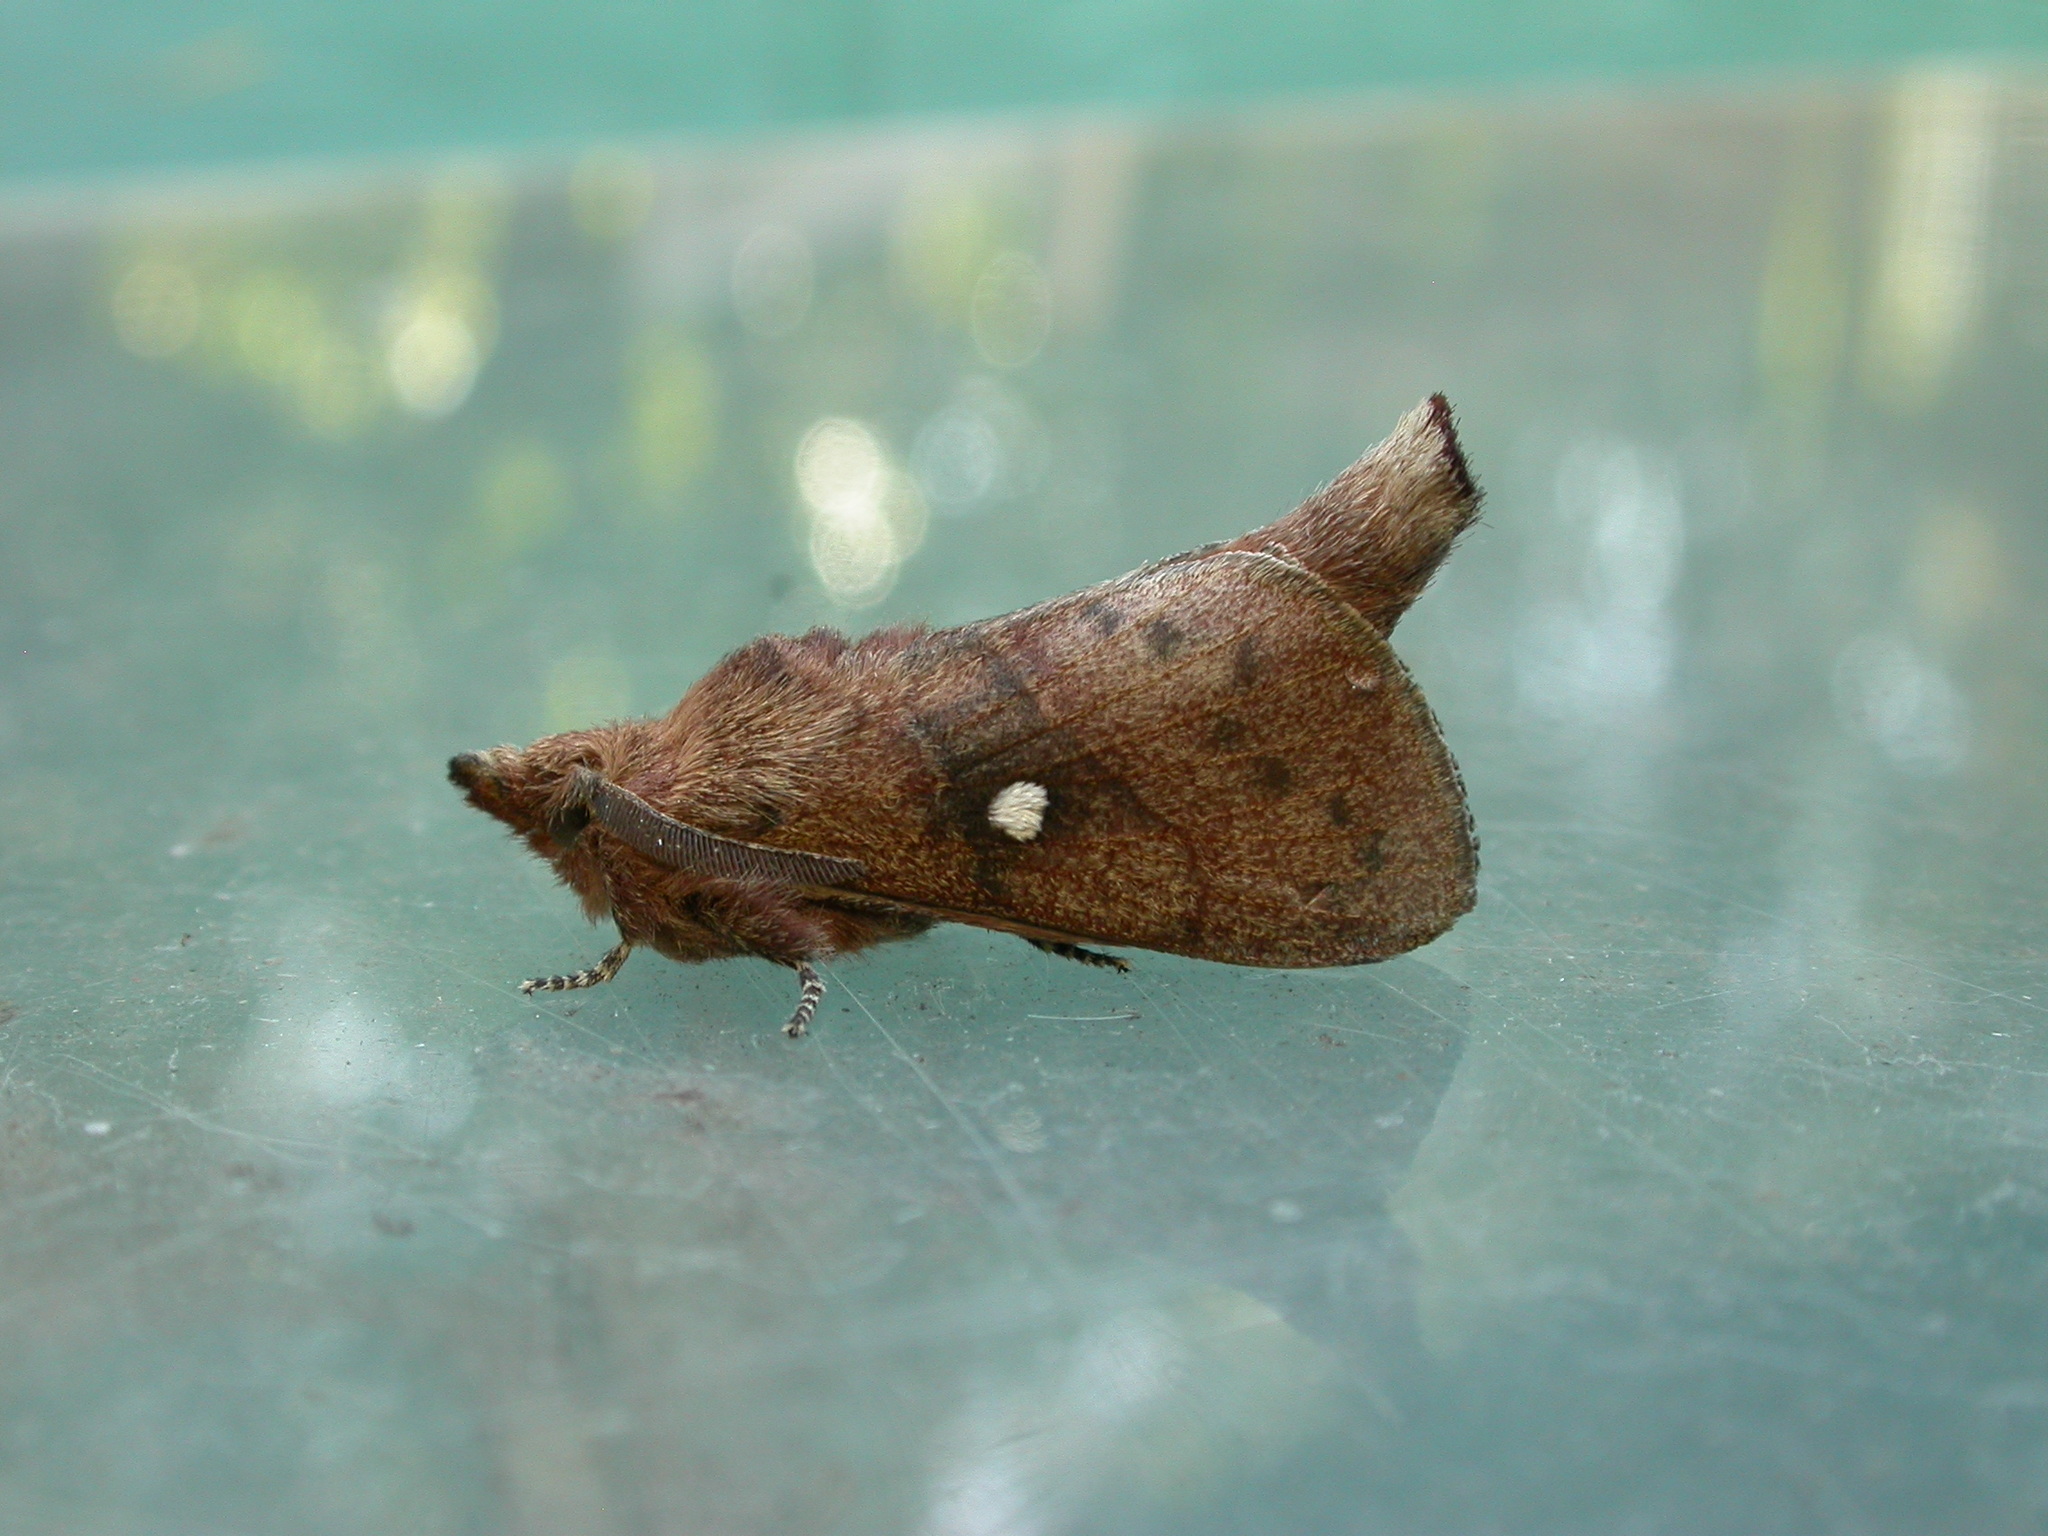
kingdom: Animalia
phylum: Arthropoda
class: Insecta
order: Lepidoptera
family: Lasiocampidae
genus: Opsirhina
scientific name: Opsirhina lechriodes
